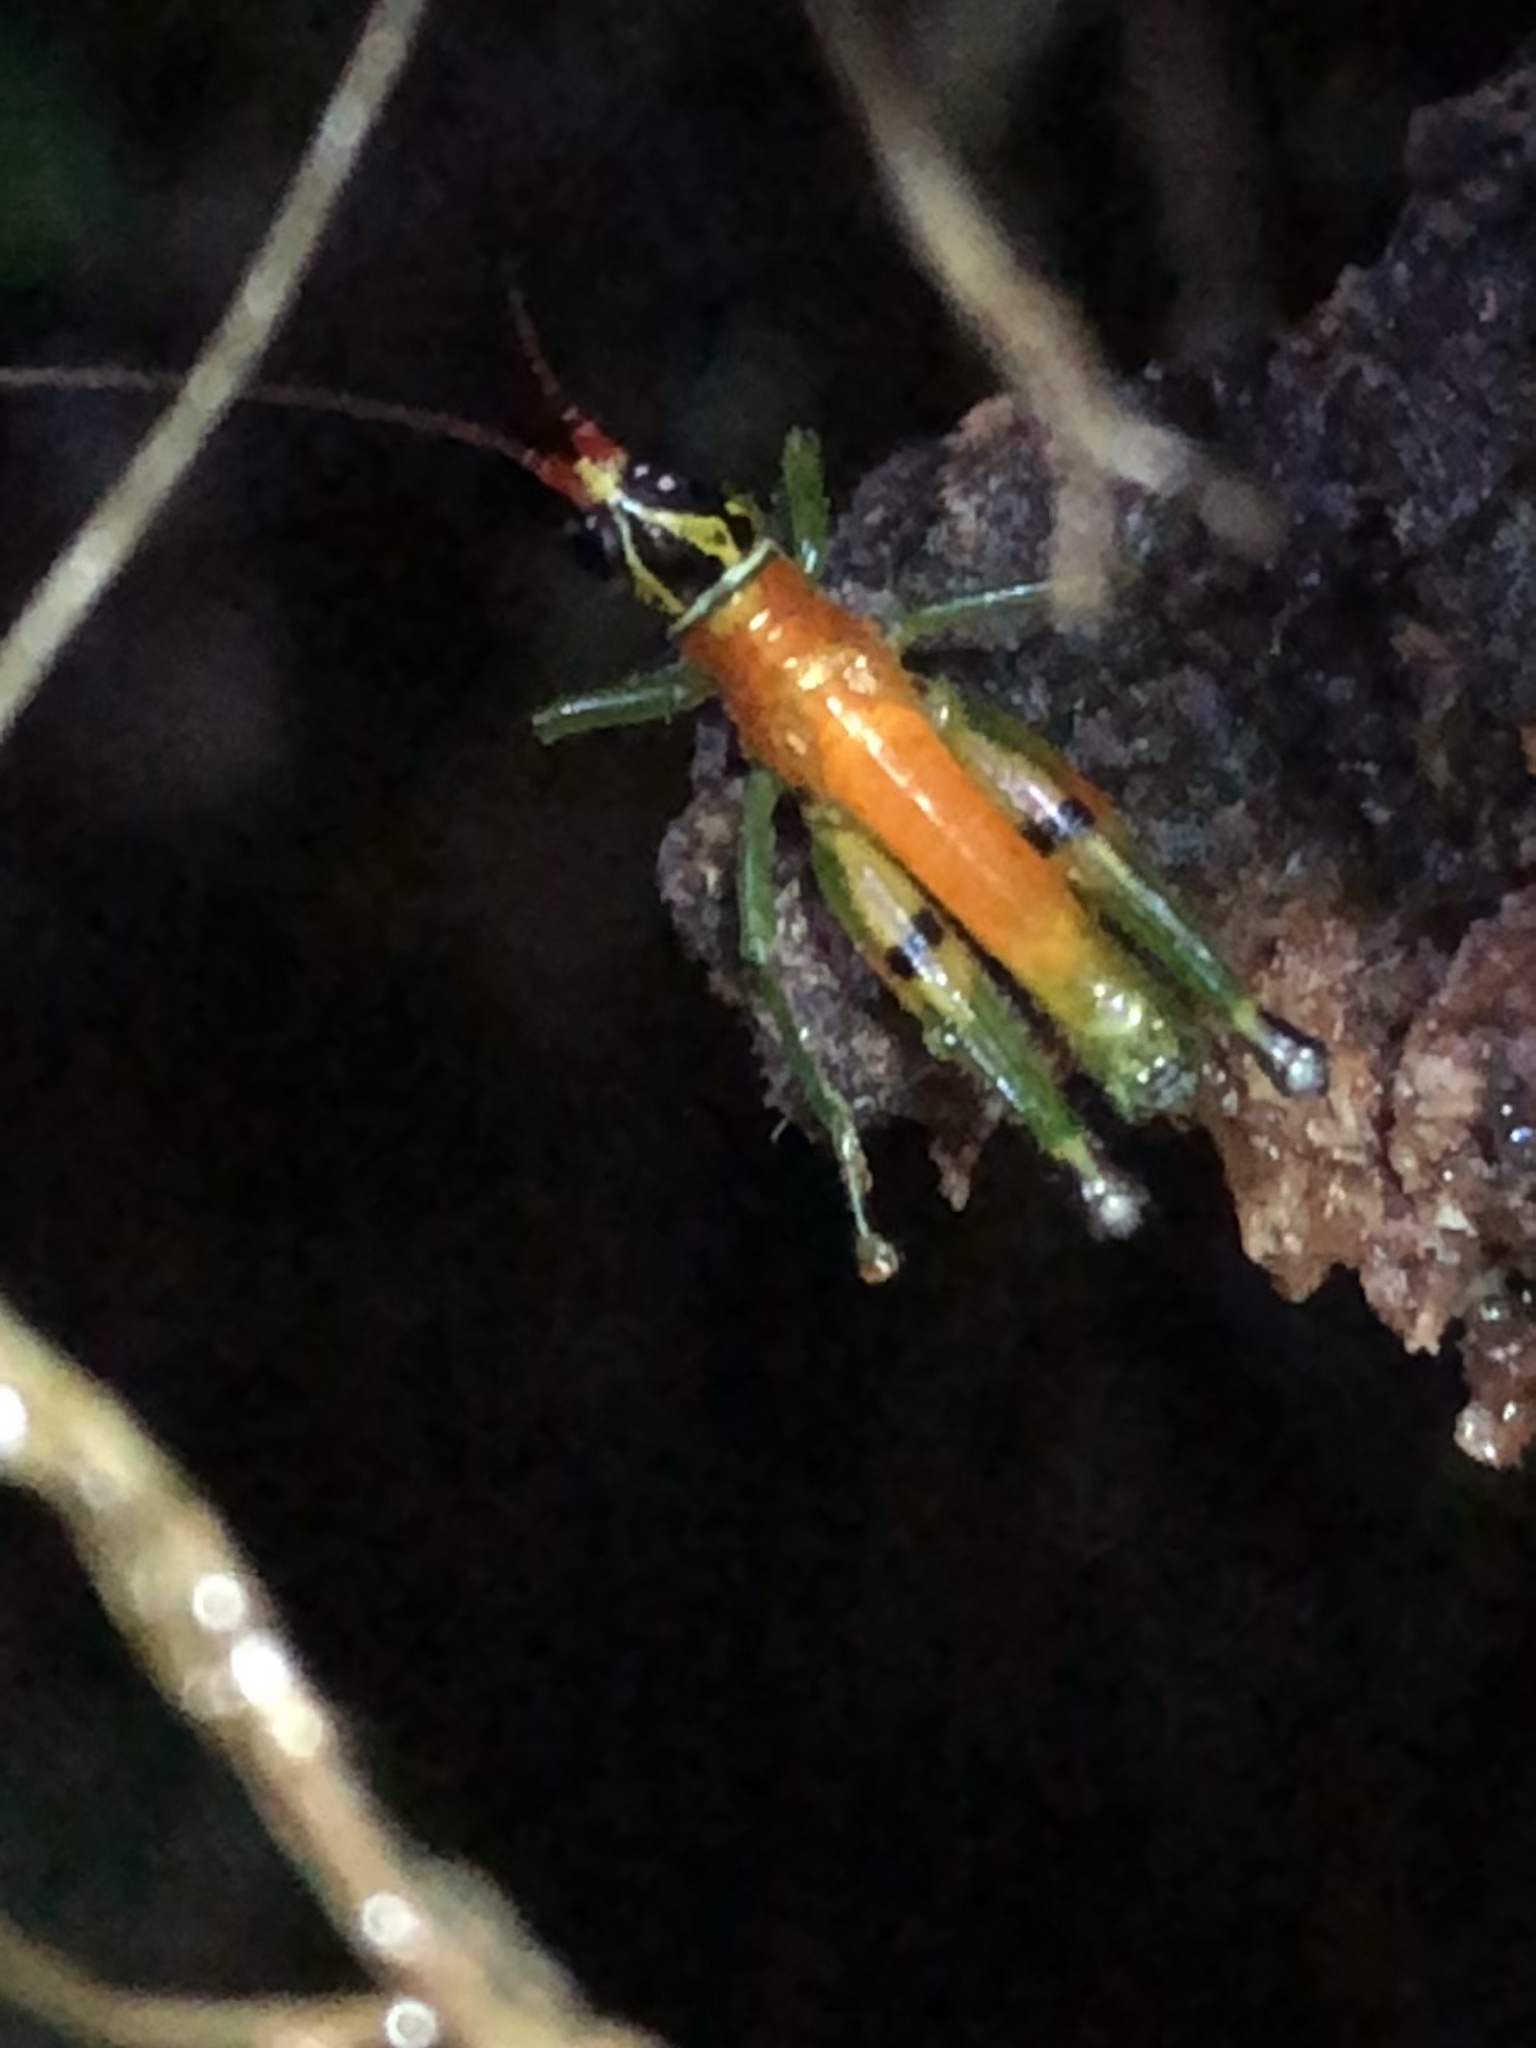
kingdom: Animalia
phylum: Arthropoda
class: Insecta
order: Orthoptera
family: Acrididae
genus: Contacris
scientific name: Contacris gemmea
